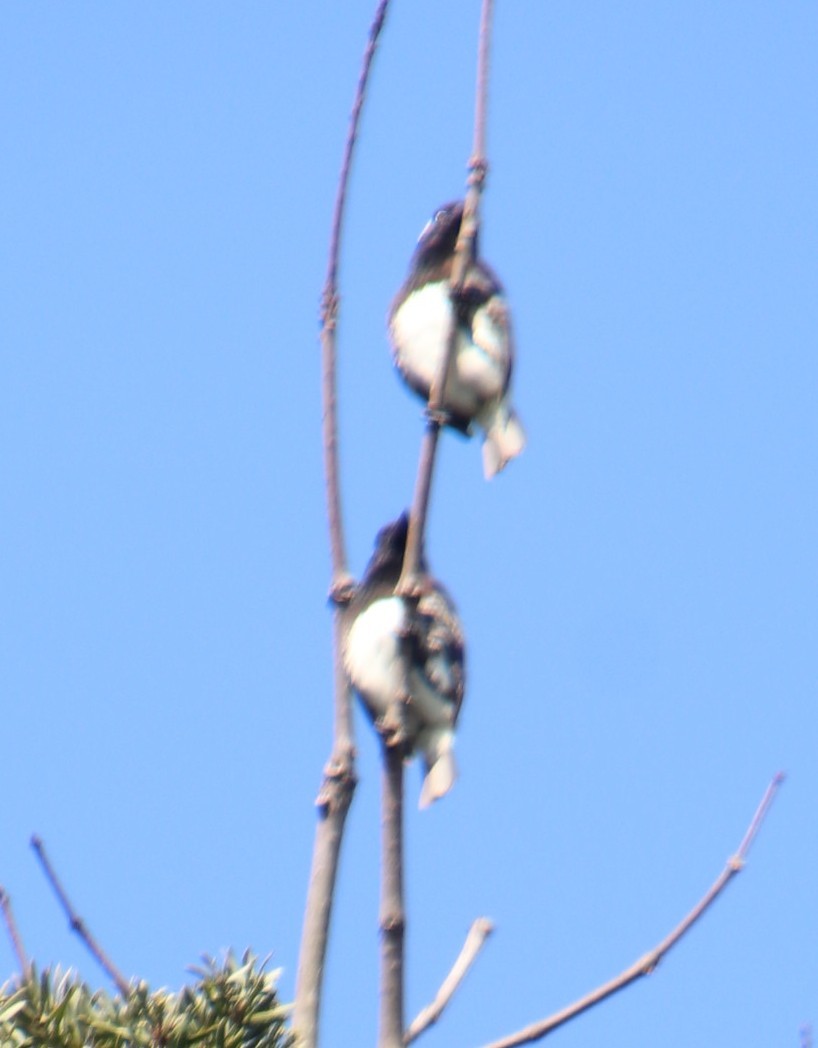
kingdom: Animalia
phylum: Chordata
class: Aves
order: Piciformes
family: Lybiidae
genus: Stactolaema
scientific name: Stactolaema leucotis
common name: White-eared barbet
